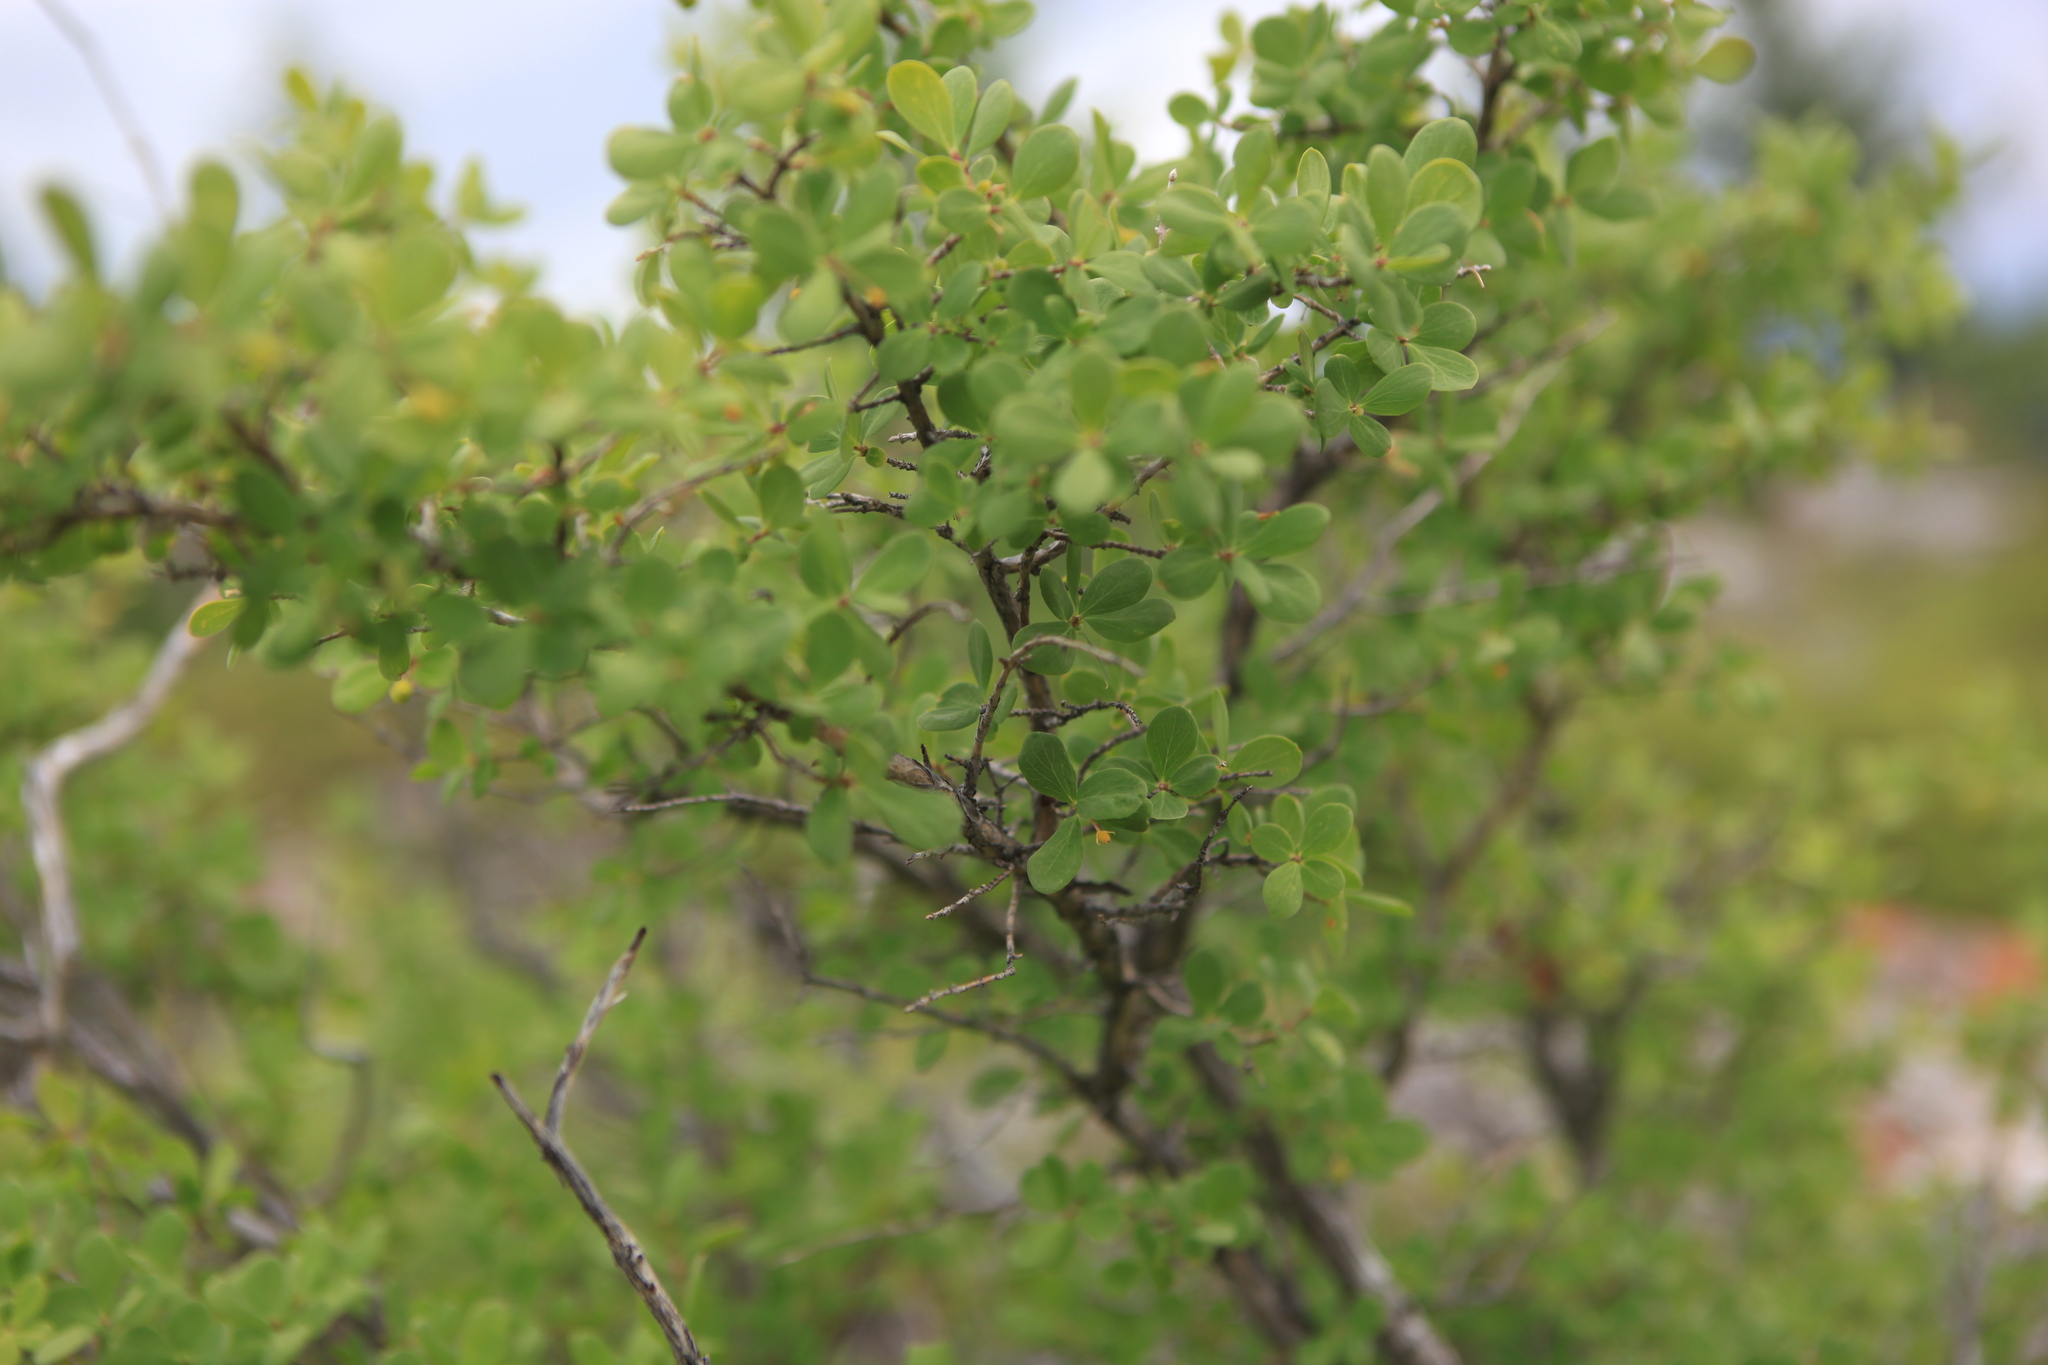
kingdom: Plantae
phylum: Tracheophyta
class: Magnoliopsida
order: Dipsacales
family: Caprifoliaceae
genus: Lonicera
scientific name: Lonicera microphylla
